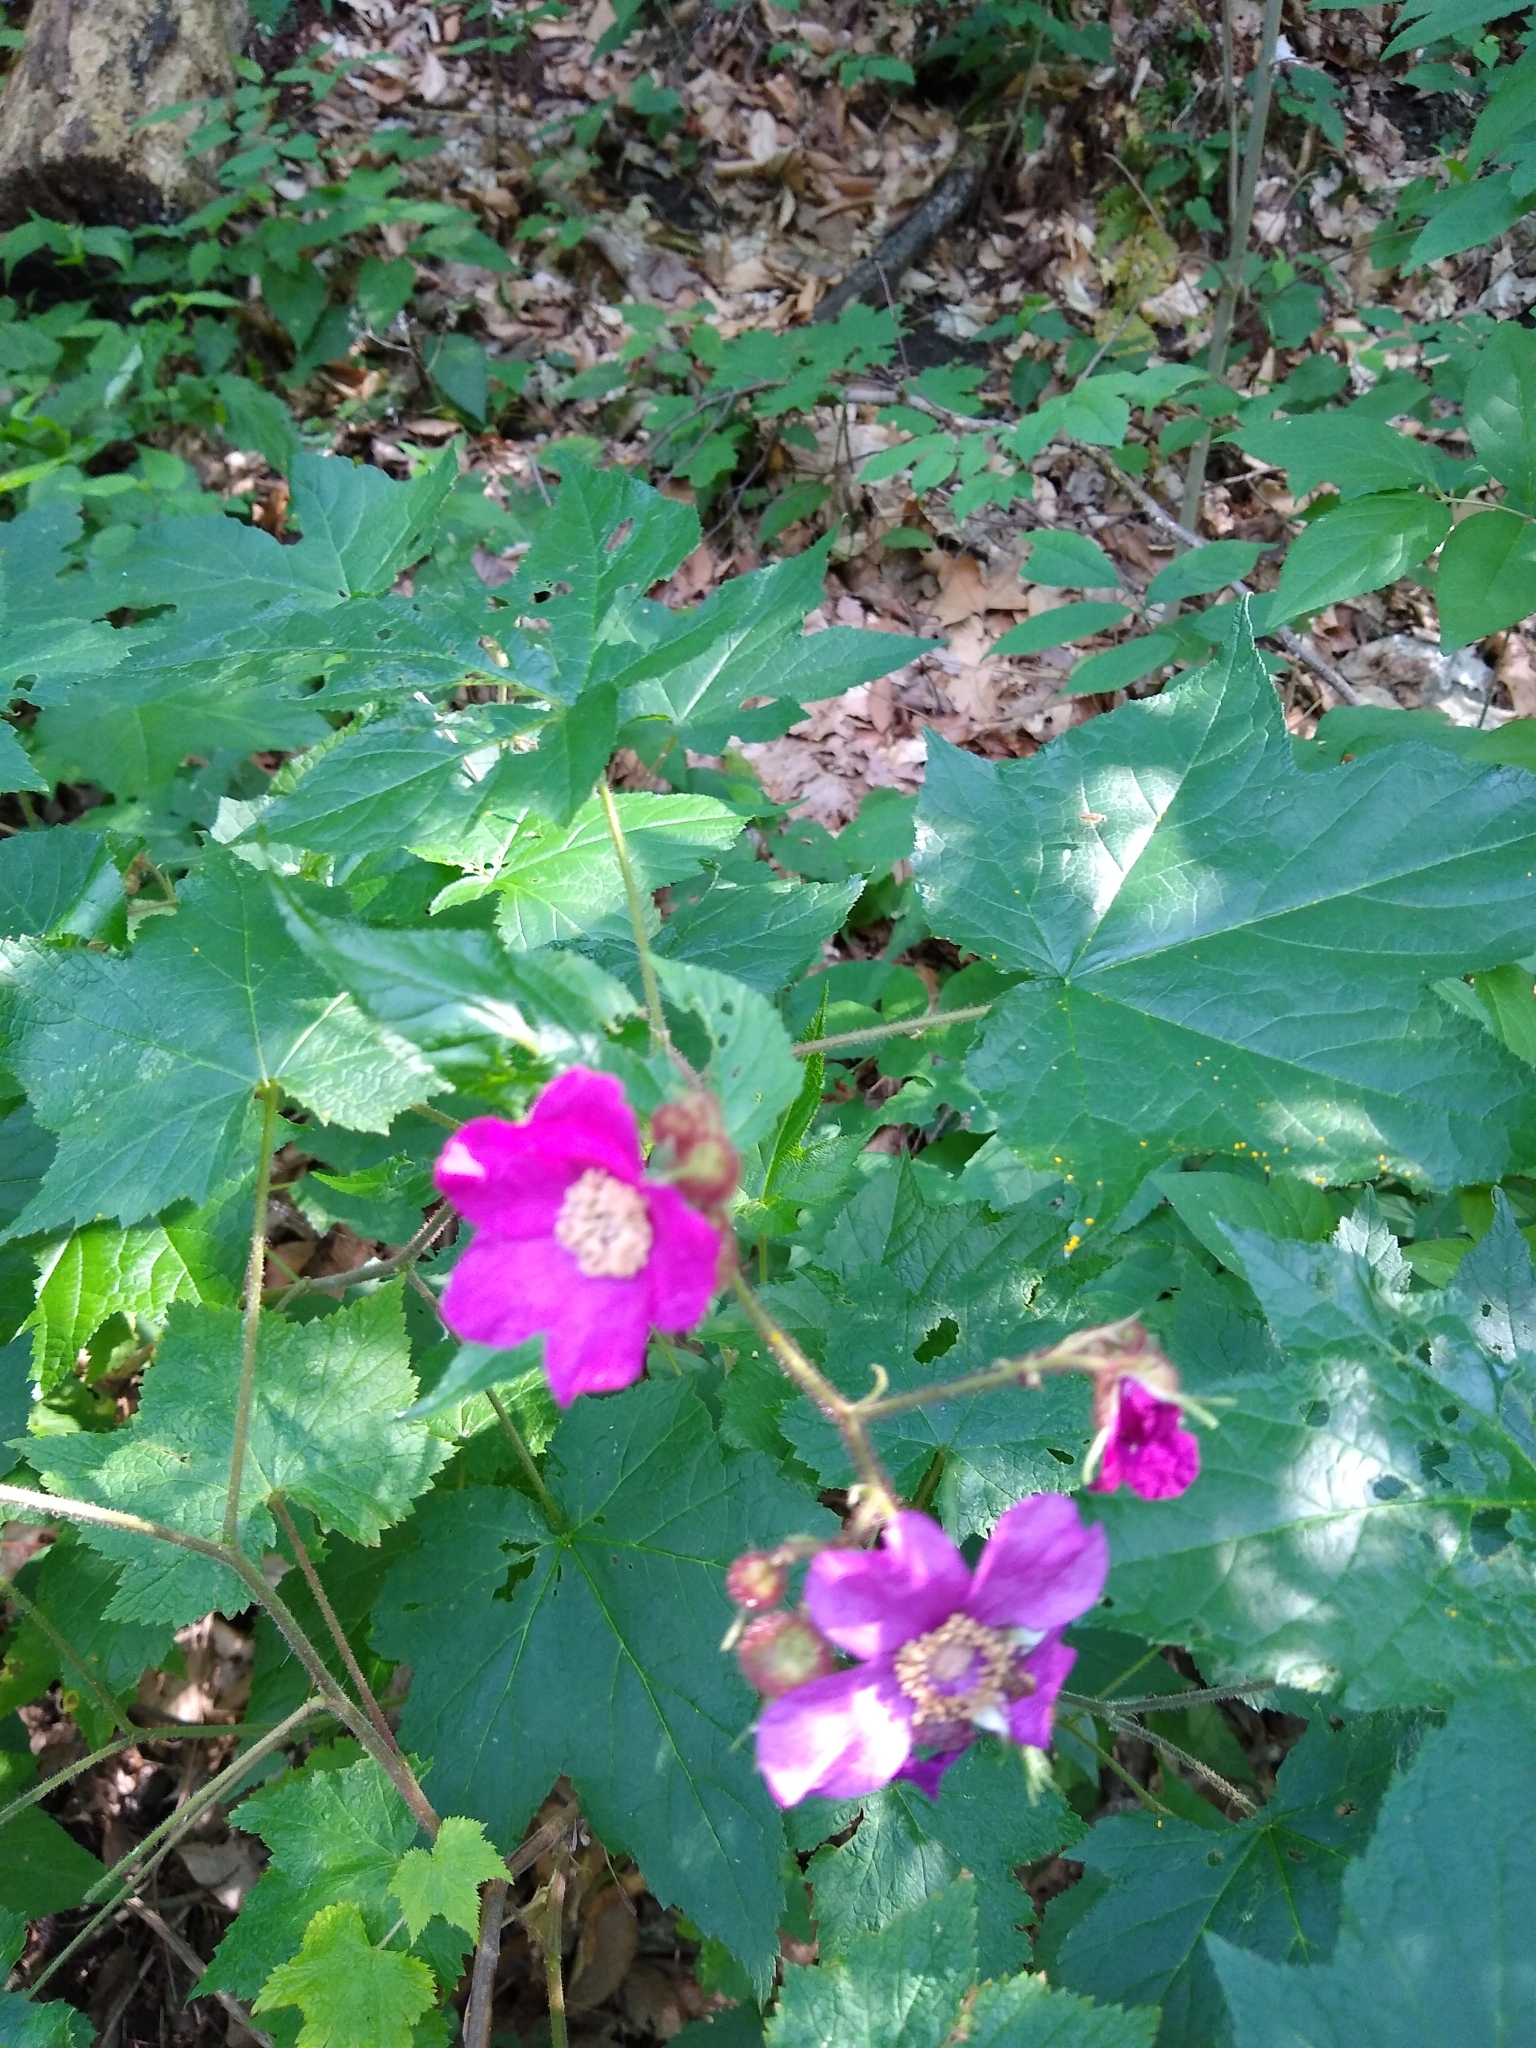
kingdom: Plantae
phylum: Tracheophyta
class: Magnoliopsida
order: Rosales
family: Rosaceae
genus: Rubus
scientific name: Rubus odoratus
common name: Purple-flowered raspberry
